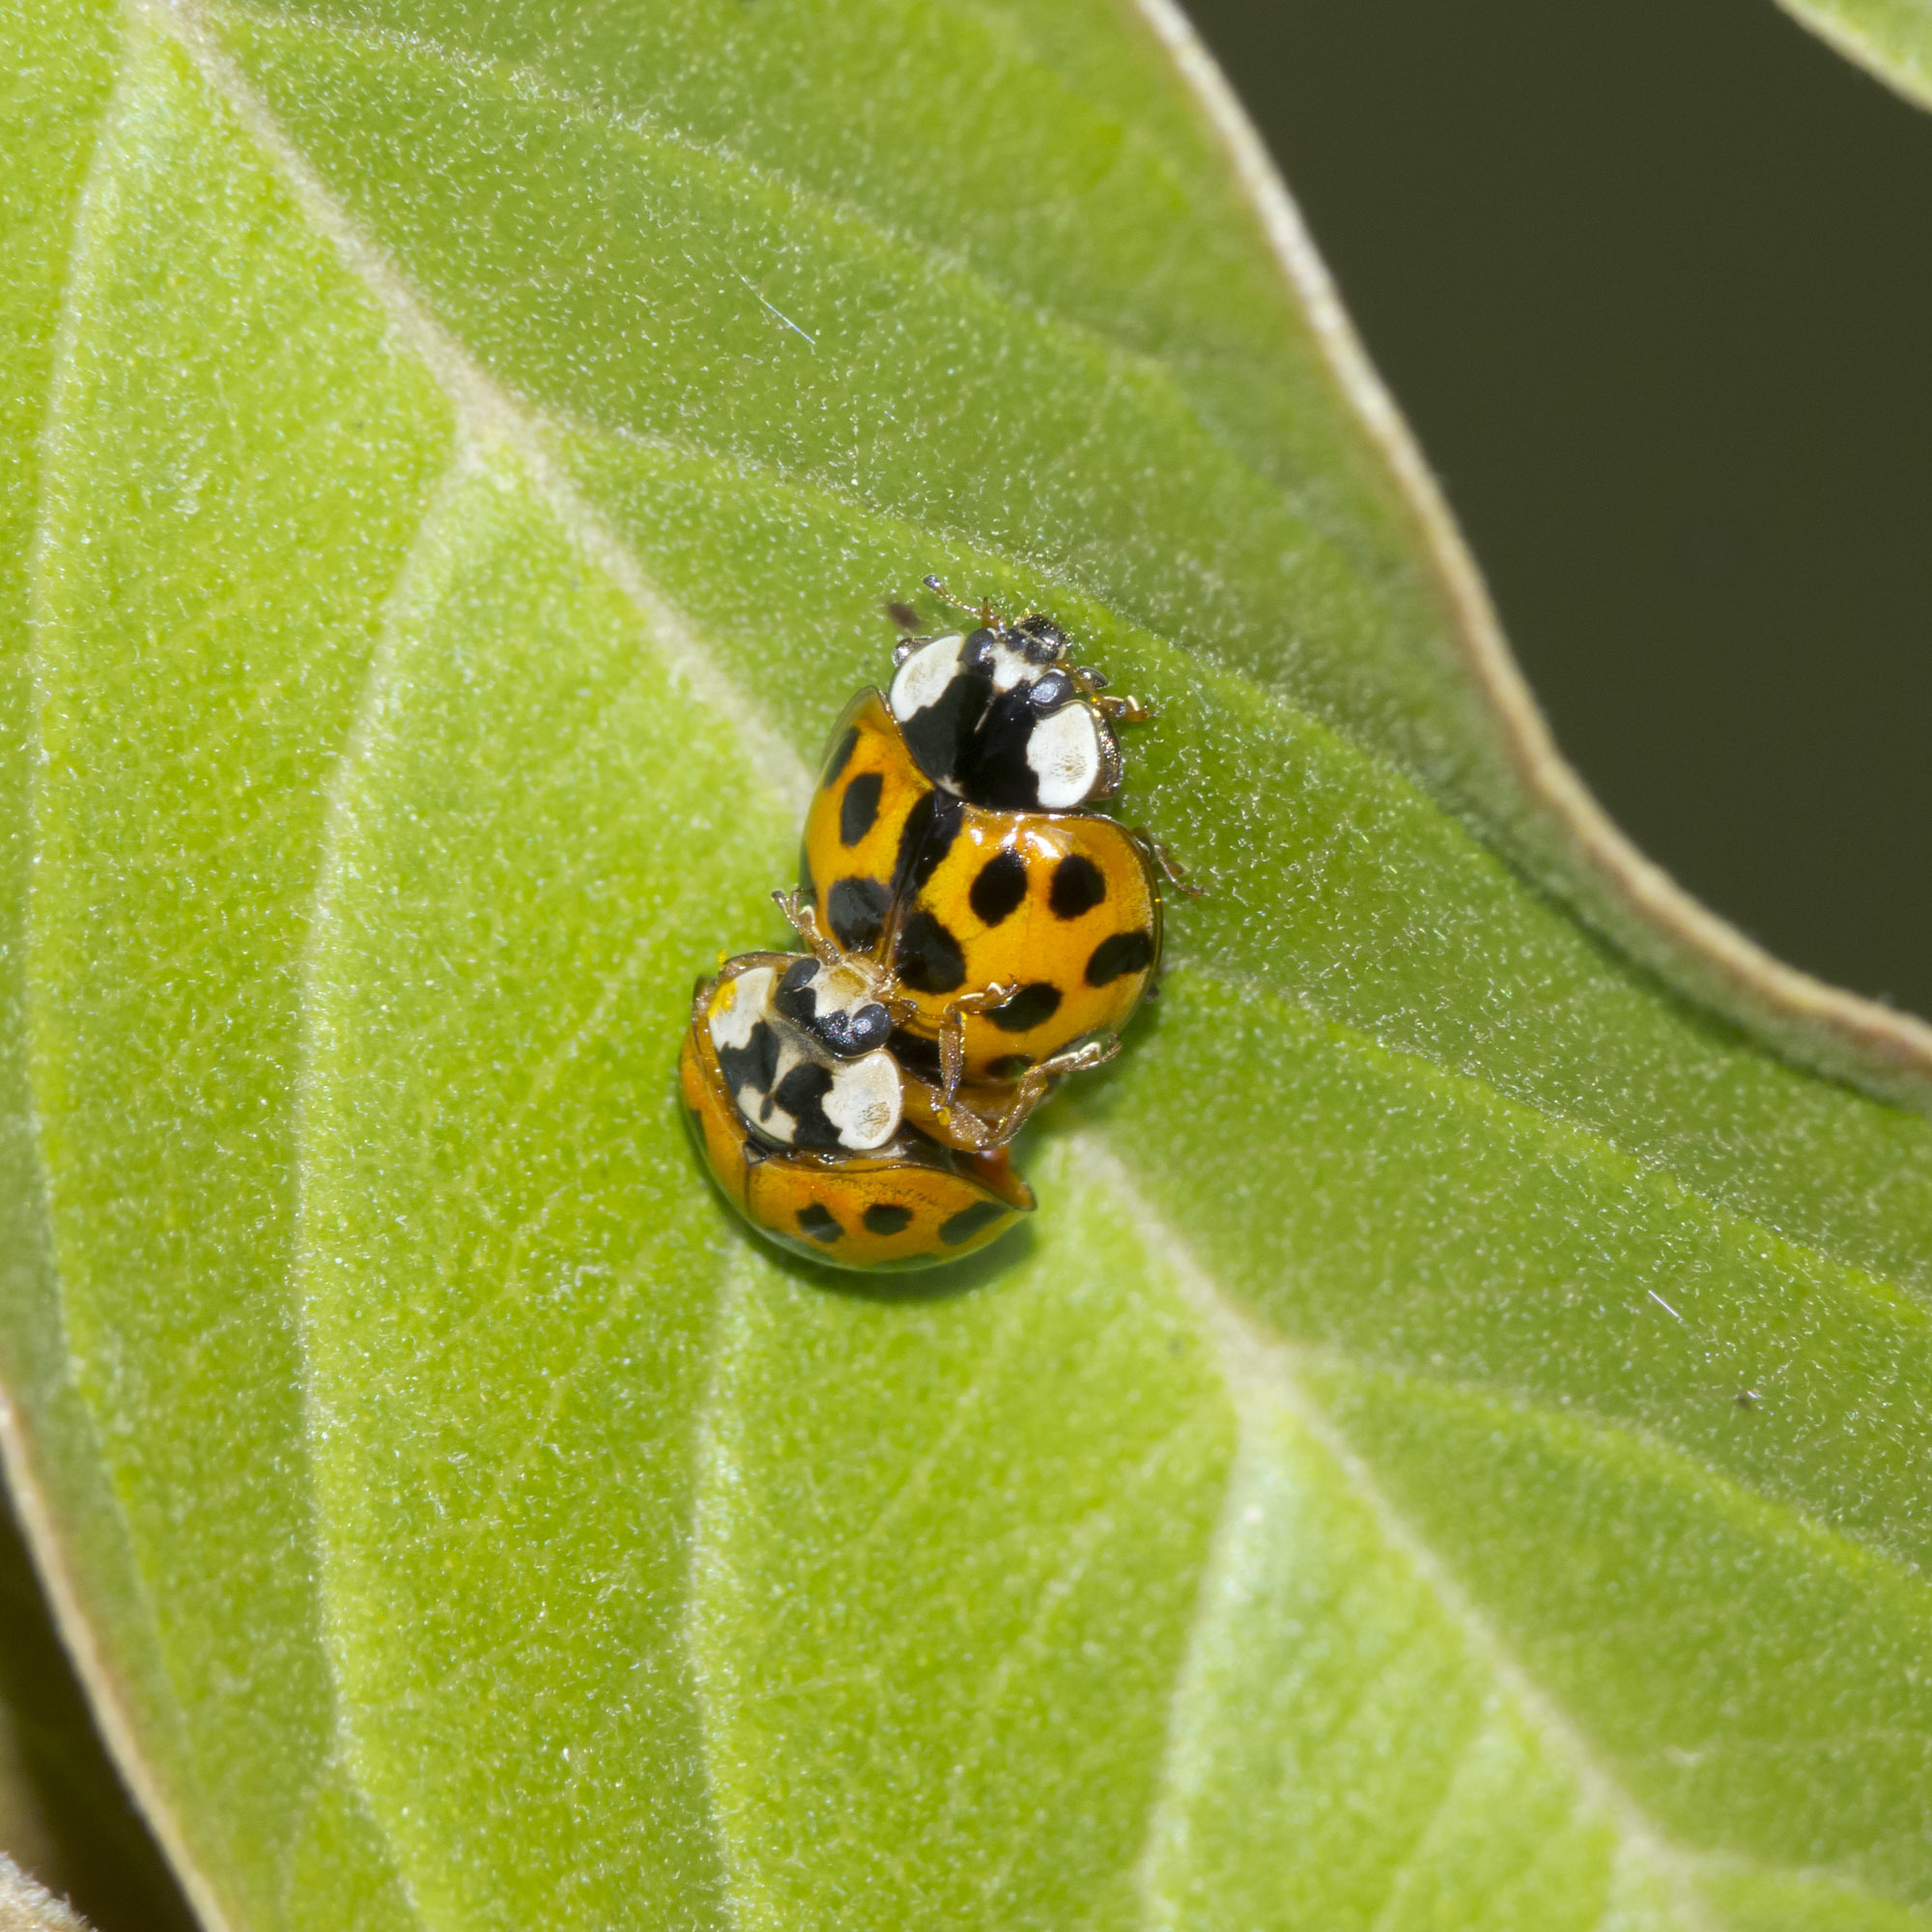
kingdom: Animalia
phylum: Arthropoda
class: Insecta
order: Coleoptera
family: Coccinellidae
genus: Harmonia
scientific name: Harmonia axyridis
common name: Harlequin ladybird
